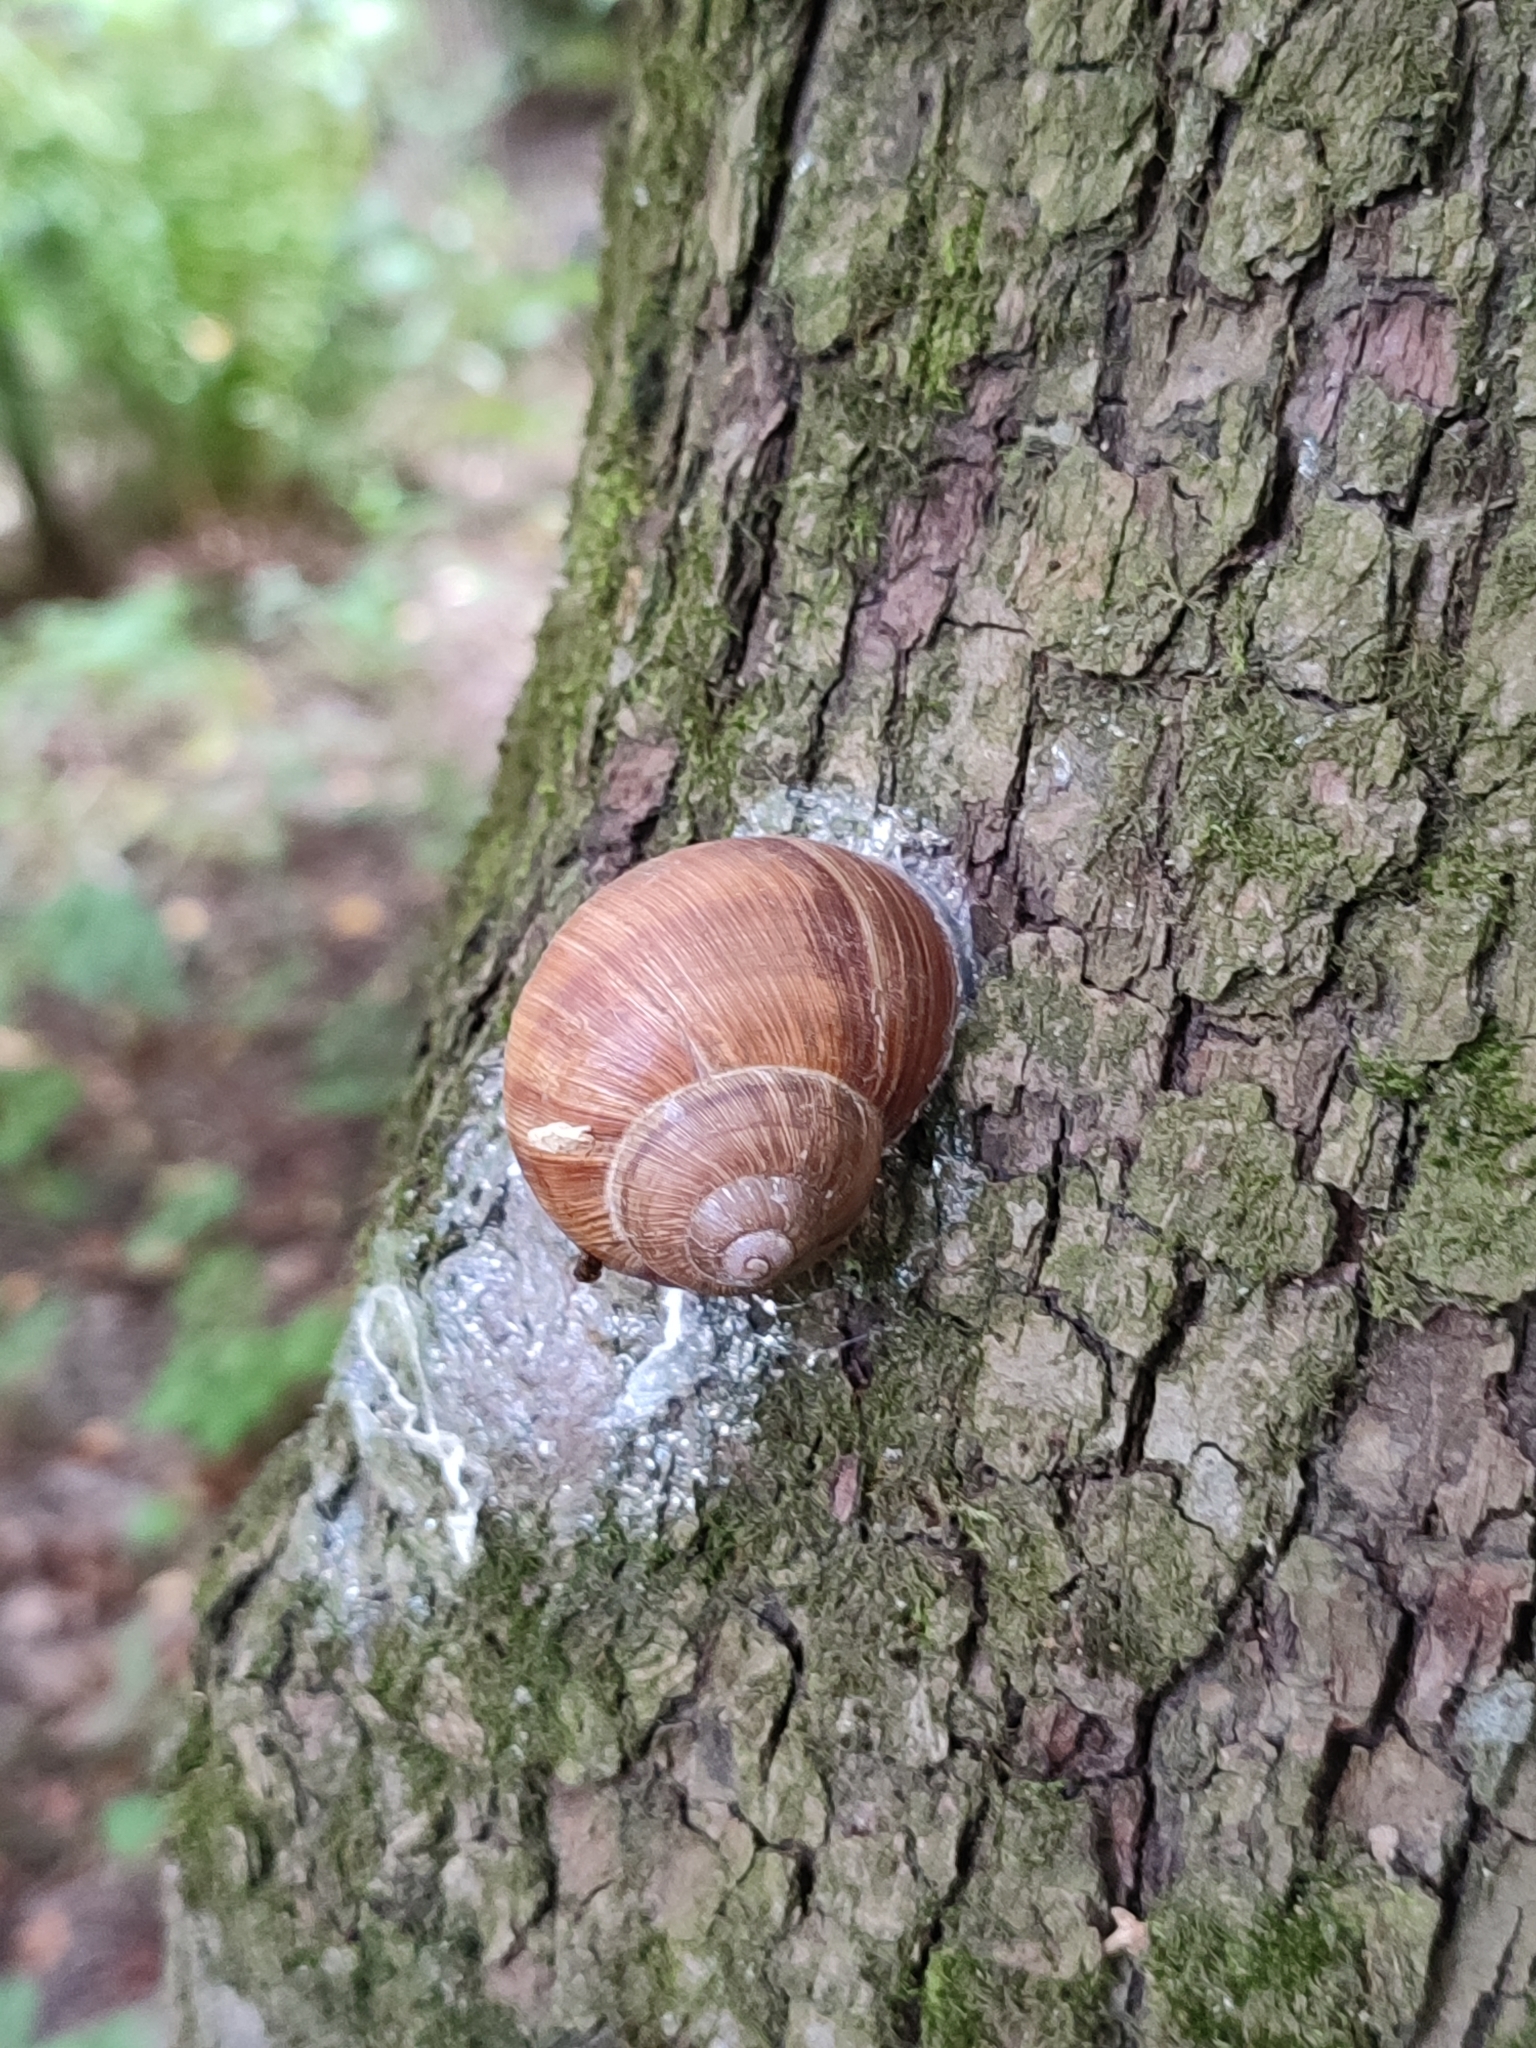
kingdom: Animalia
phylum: Mollusca
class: Gastropoda
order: Stylommatophora
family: Helicidae
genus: Helix
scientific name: Helix pomatia
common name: Roman snail
